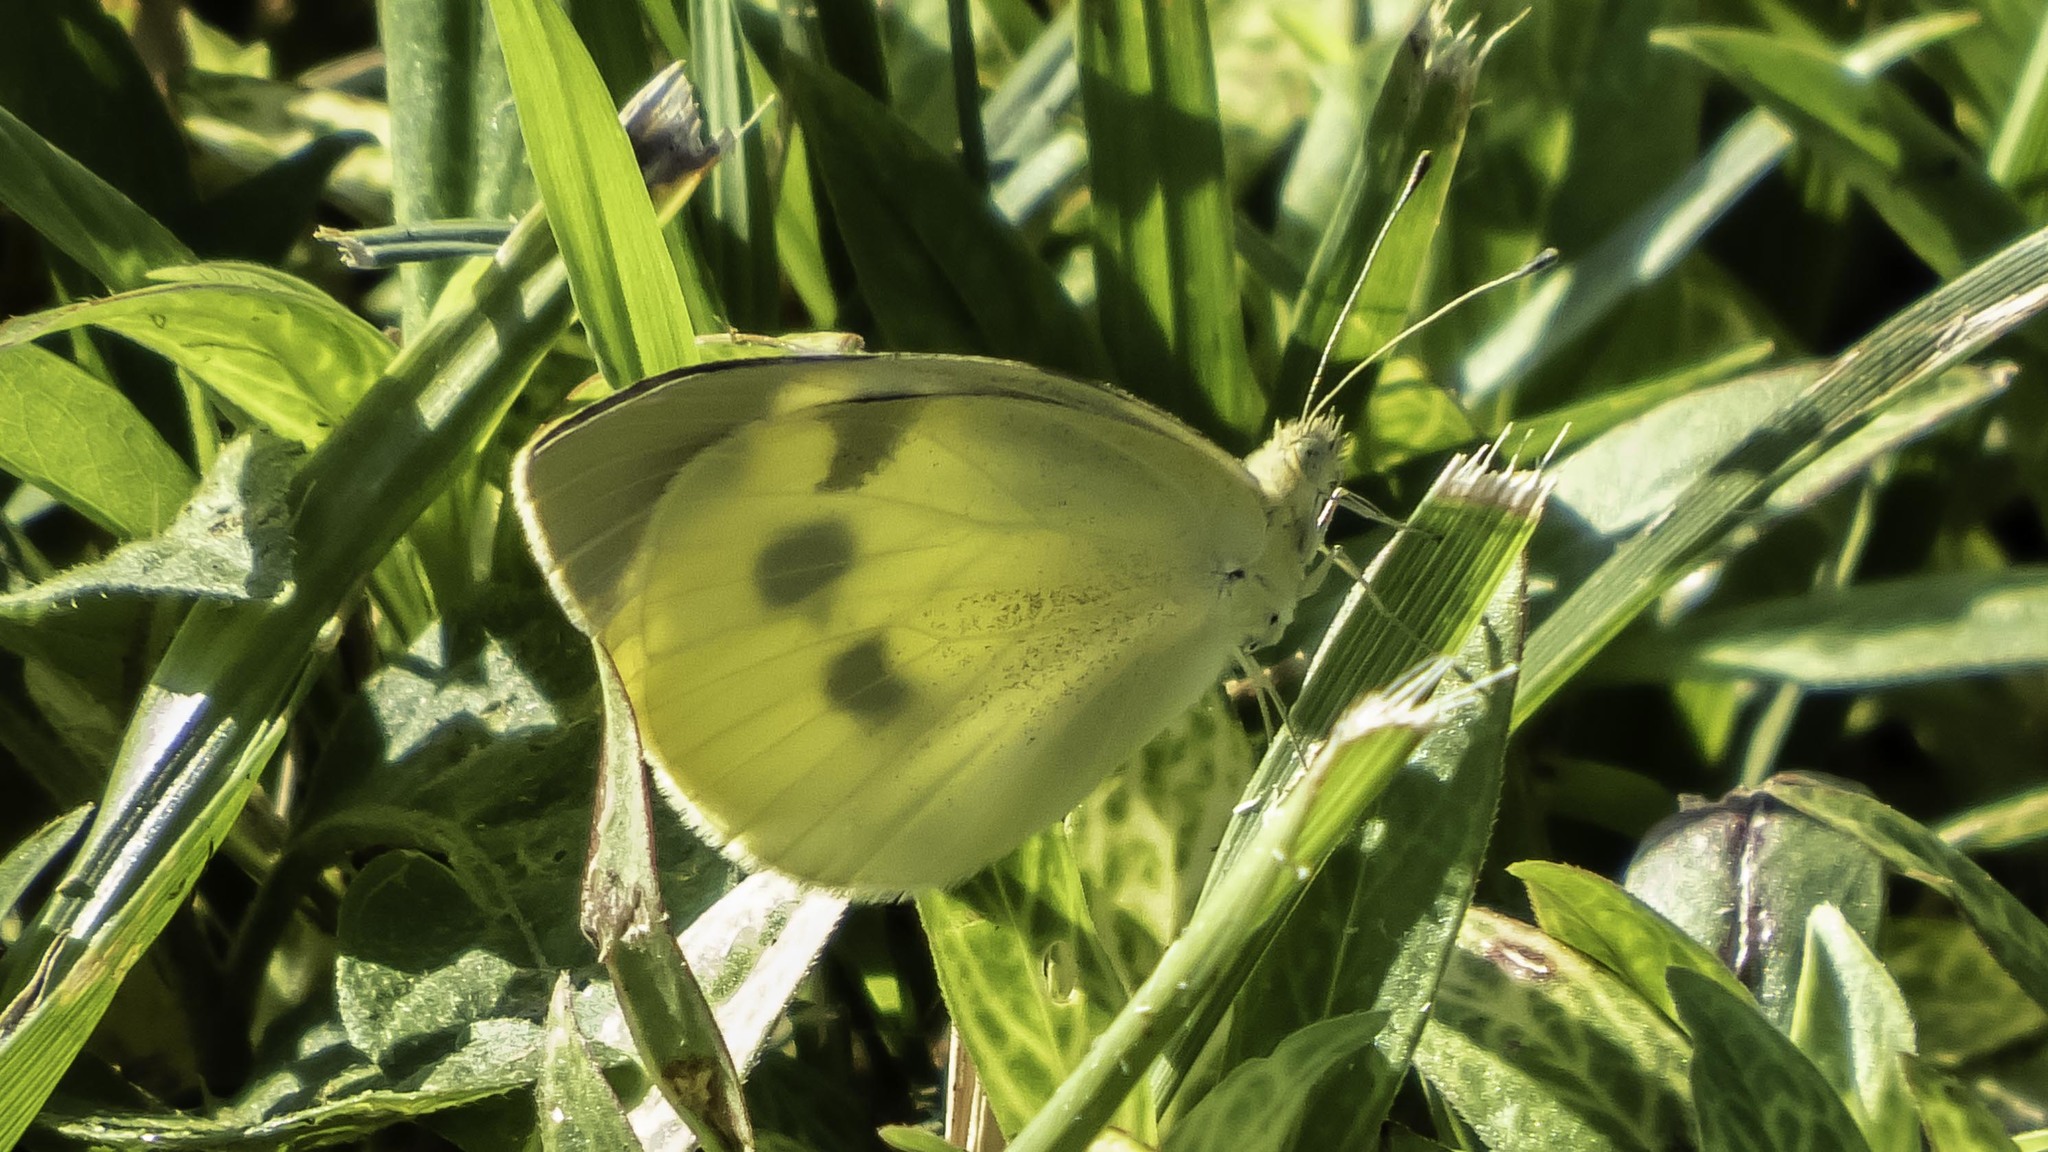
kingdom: Animalia
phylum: Arthropoda
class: Insecta
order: Lepidoptera
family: Pieridae
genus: Pieris
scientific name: Pieris rapae
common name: Small white
